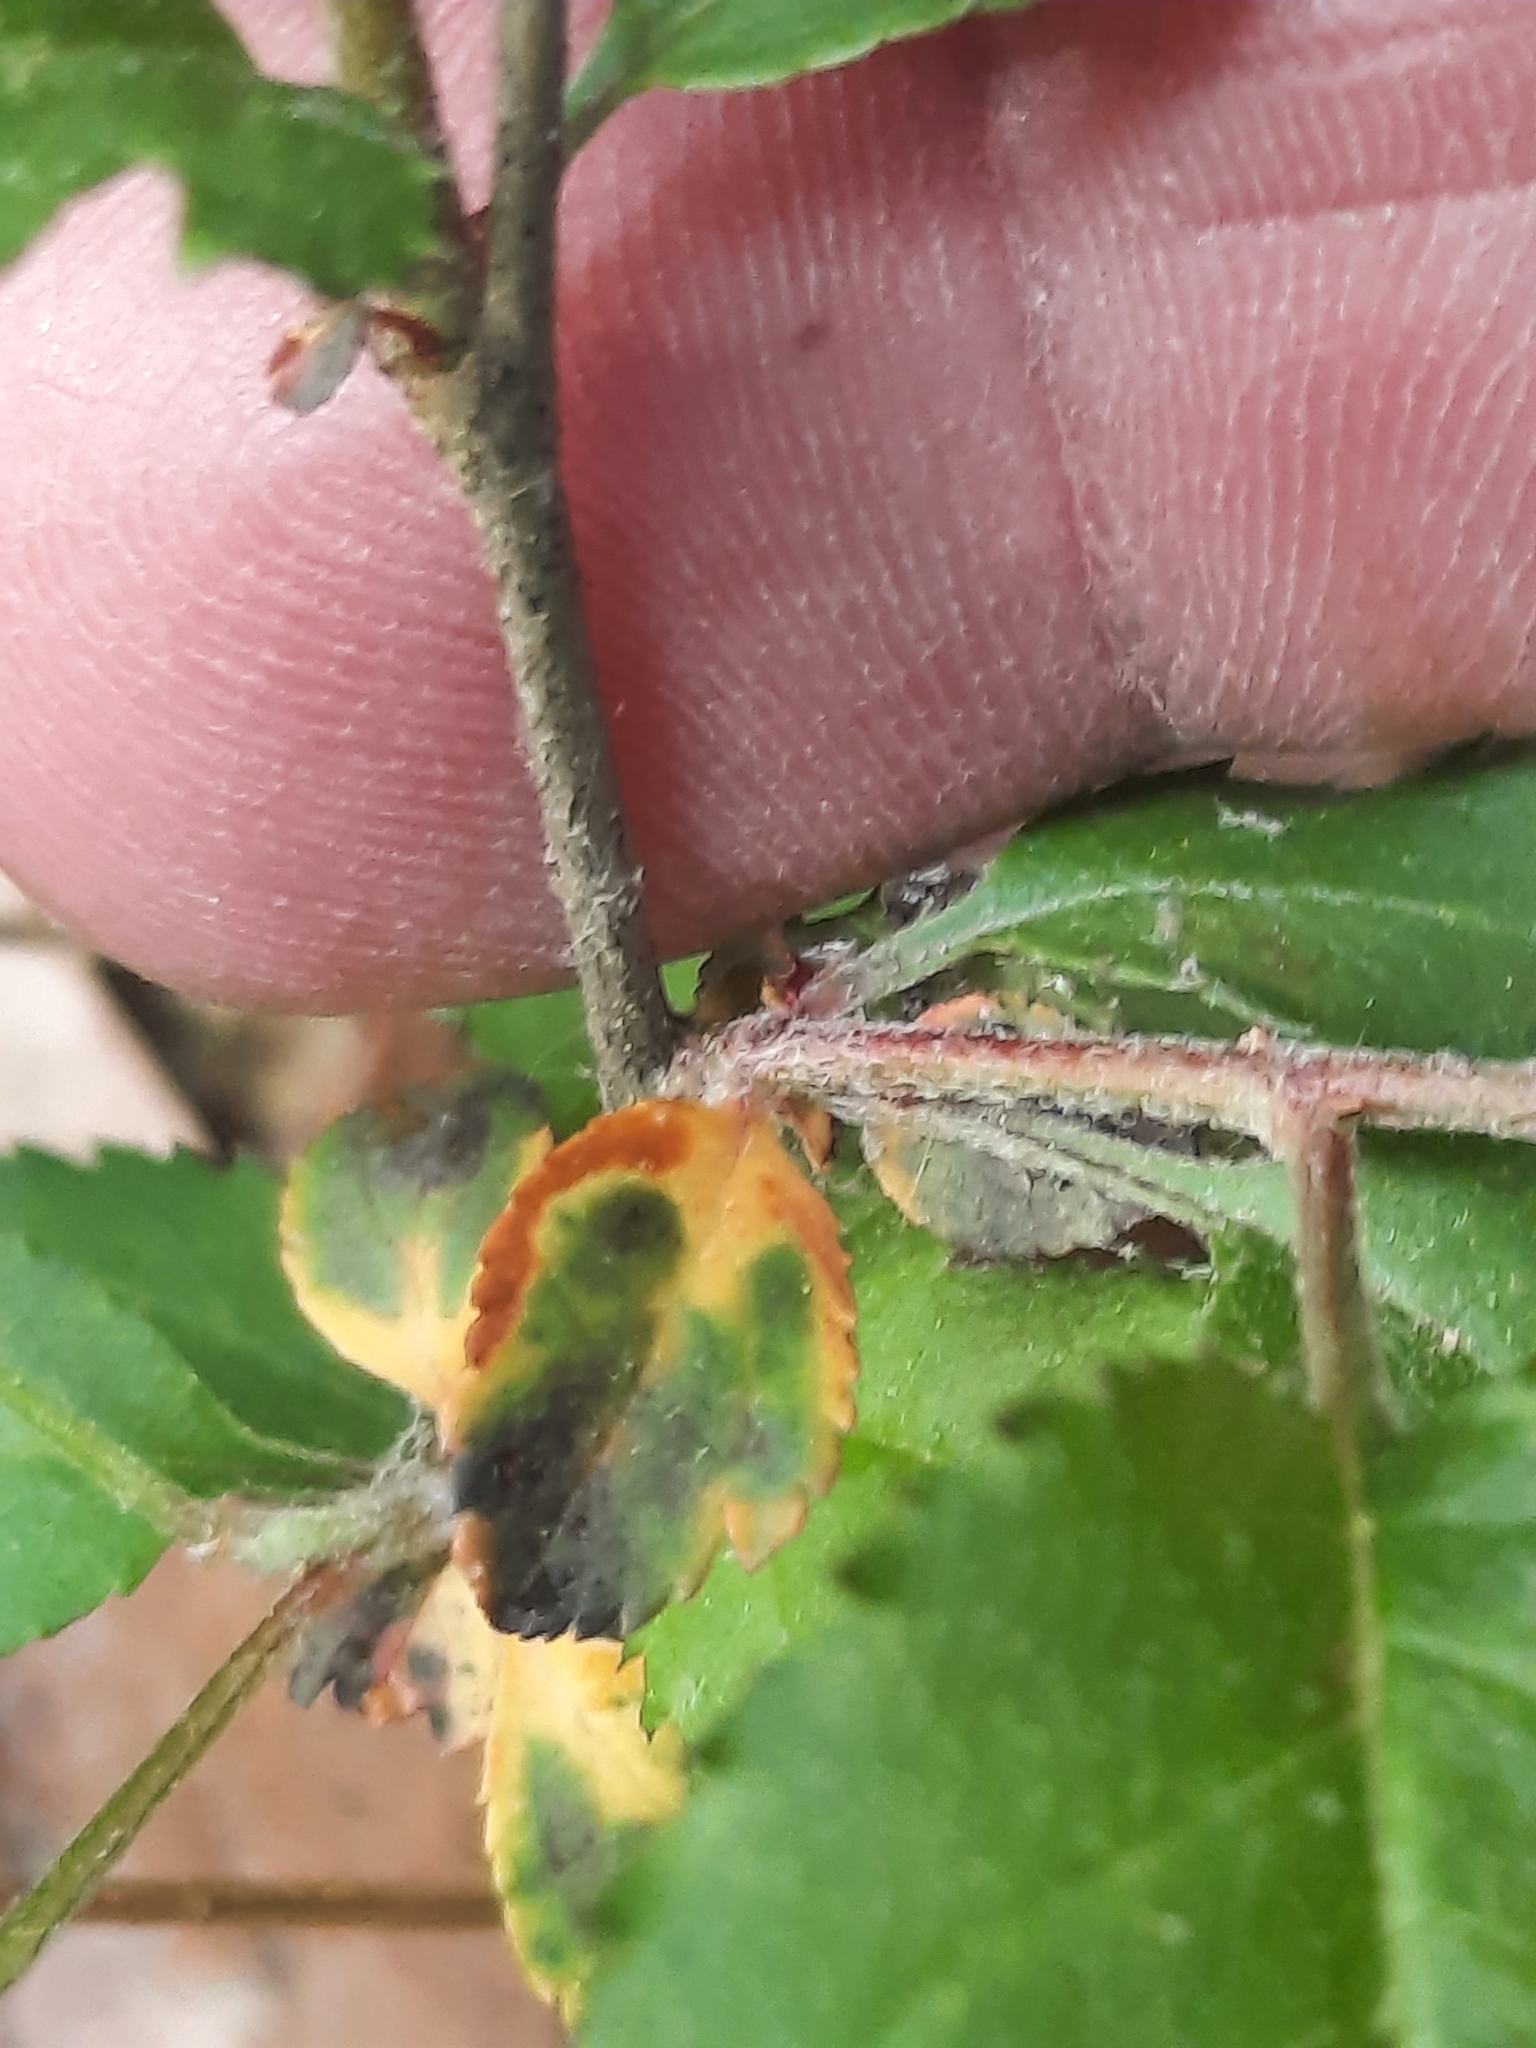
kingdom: Plantae
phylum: Tracheophyta
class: Magnoliopsida
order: Rosales
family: Rosaceae
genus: Malus
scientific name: Malus toringo
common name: Japanese crabapple
